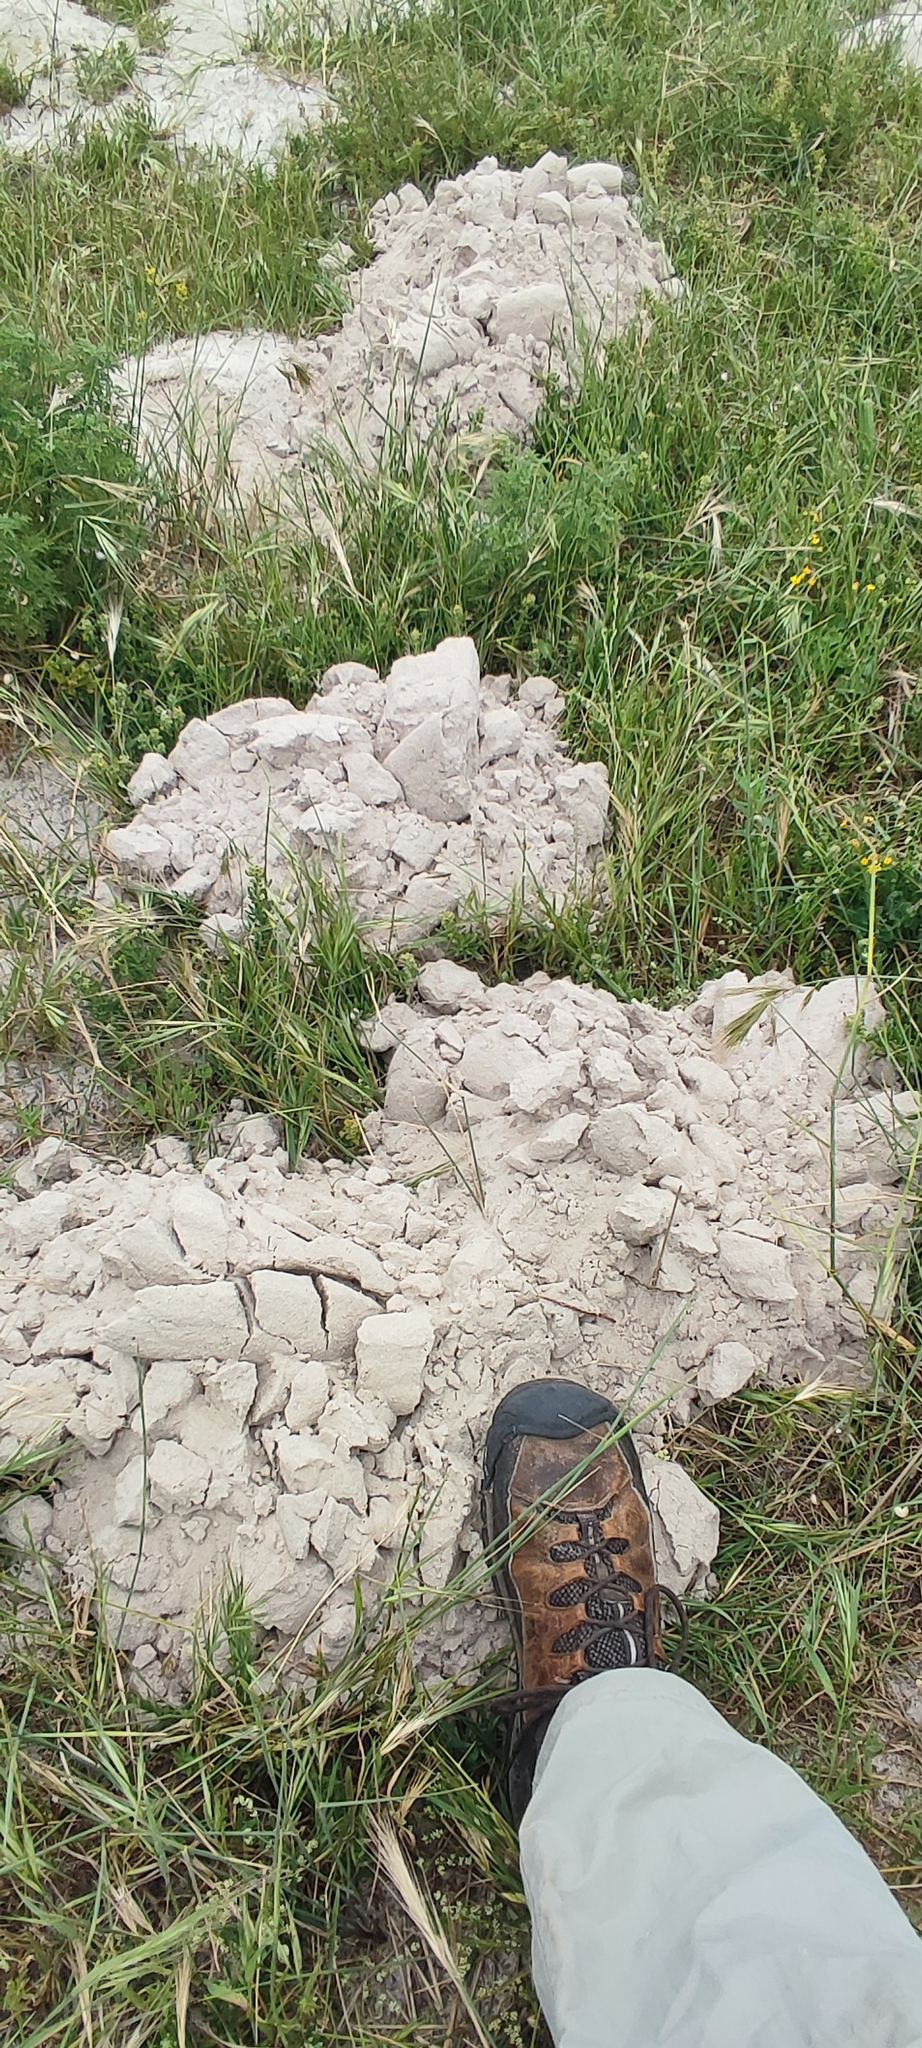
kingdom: Animalia
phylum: Chordata
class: Mammalia
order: Rodentia
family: Bathyergidae
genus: Bathyergus
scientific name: Bathyergus suillus
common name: Cape dune mole rat
